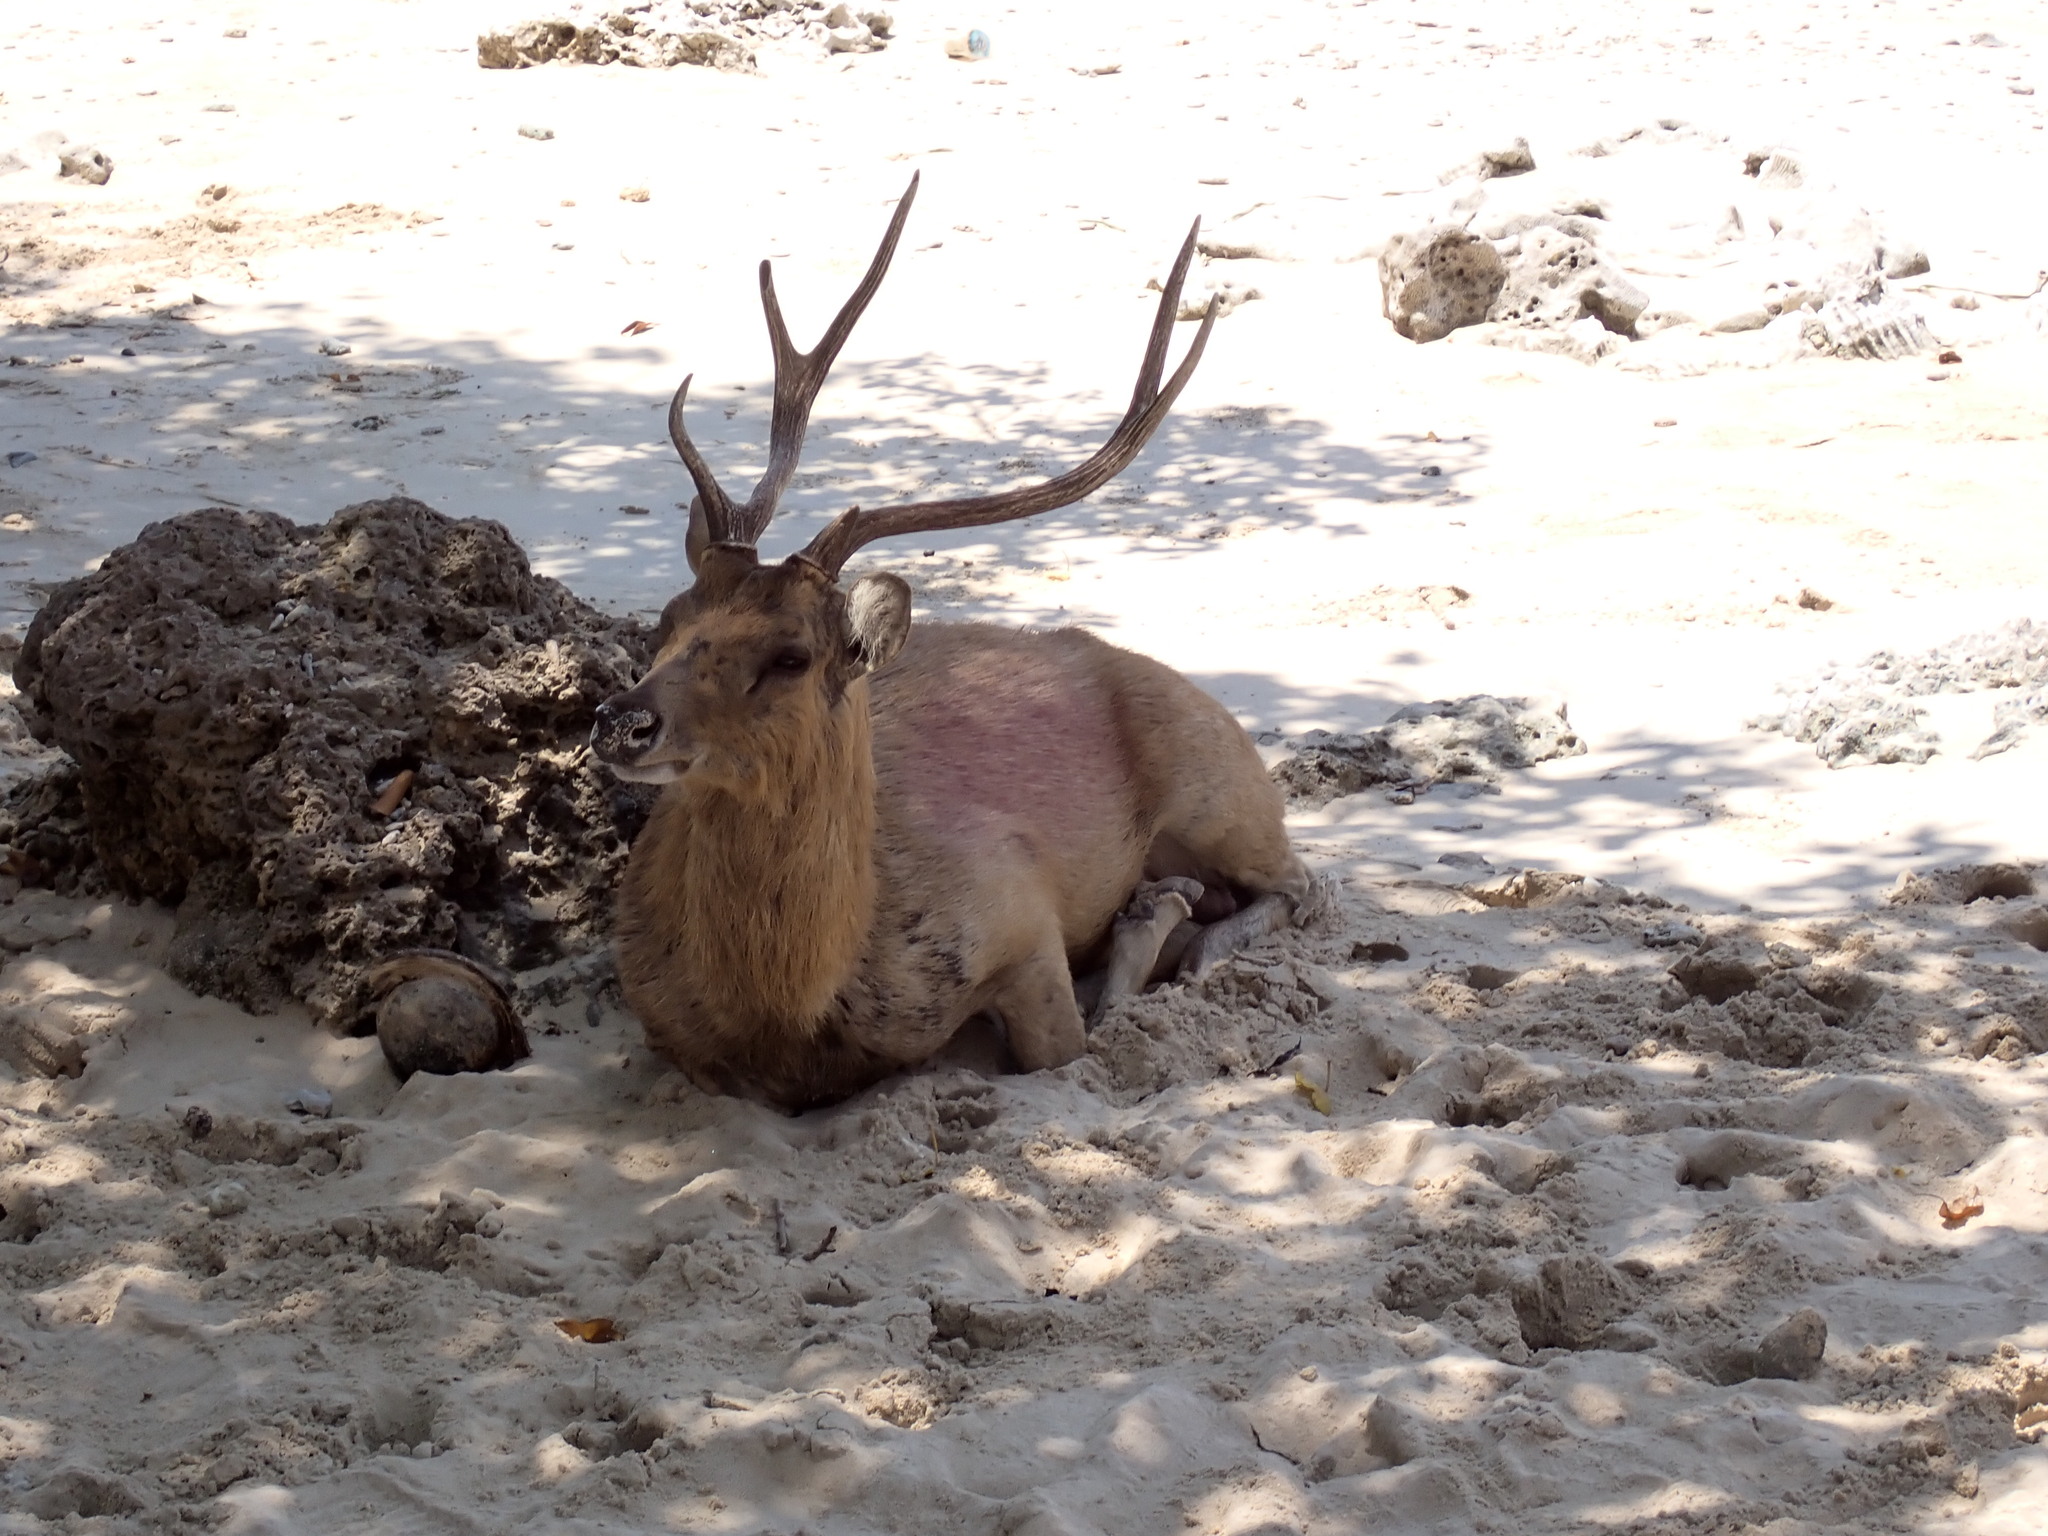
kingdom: Animalia
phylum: Chordata
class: Mammalia
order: Artiodactyla
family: Cervidae
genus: Rusa
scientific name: Rusa timorensis
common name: Javan rusa
